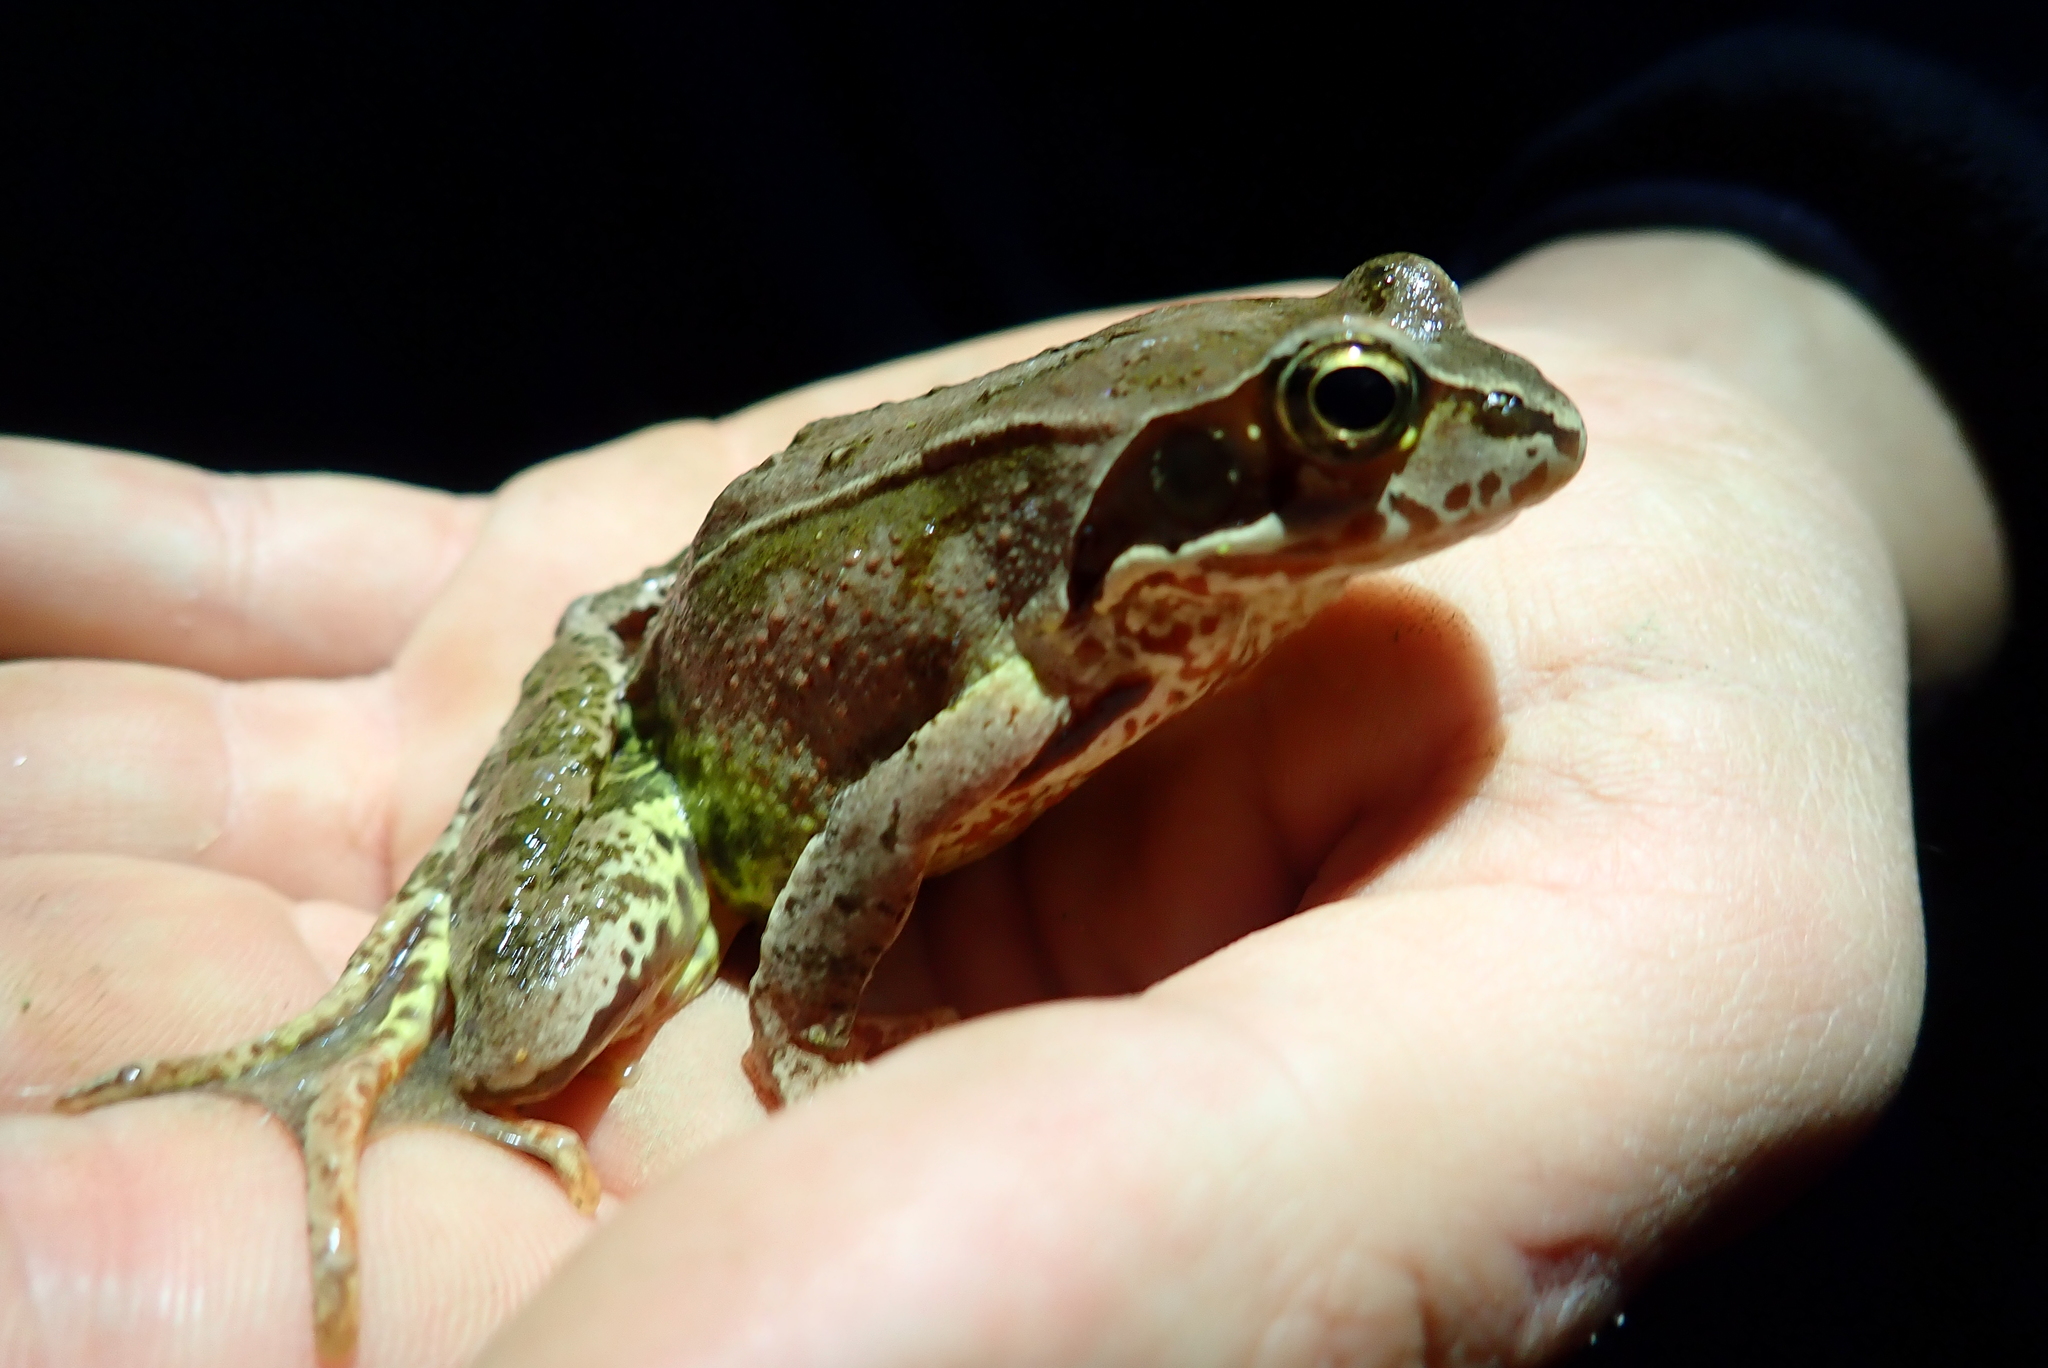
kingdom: Animalia
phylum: Chordata
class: Amphibia
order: Anura
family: Ranidae
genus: Rana
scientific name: Rana temporaria
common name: Common frog
